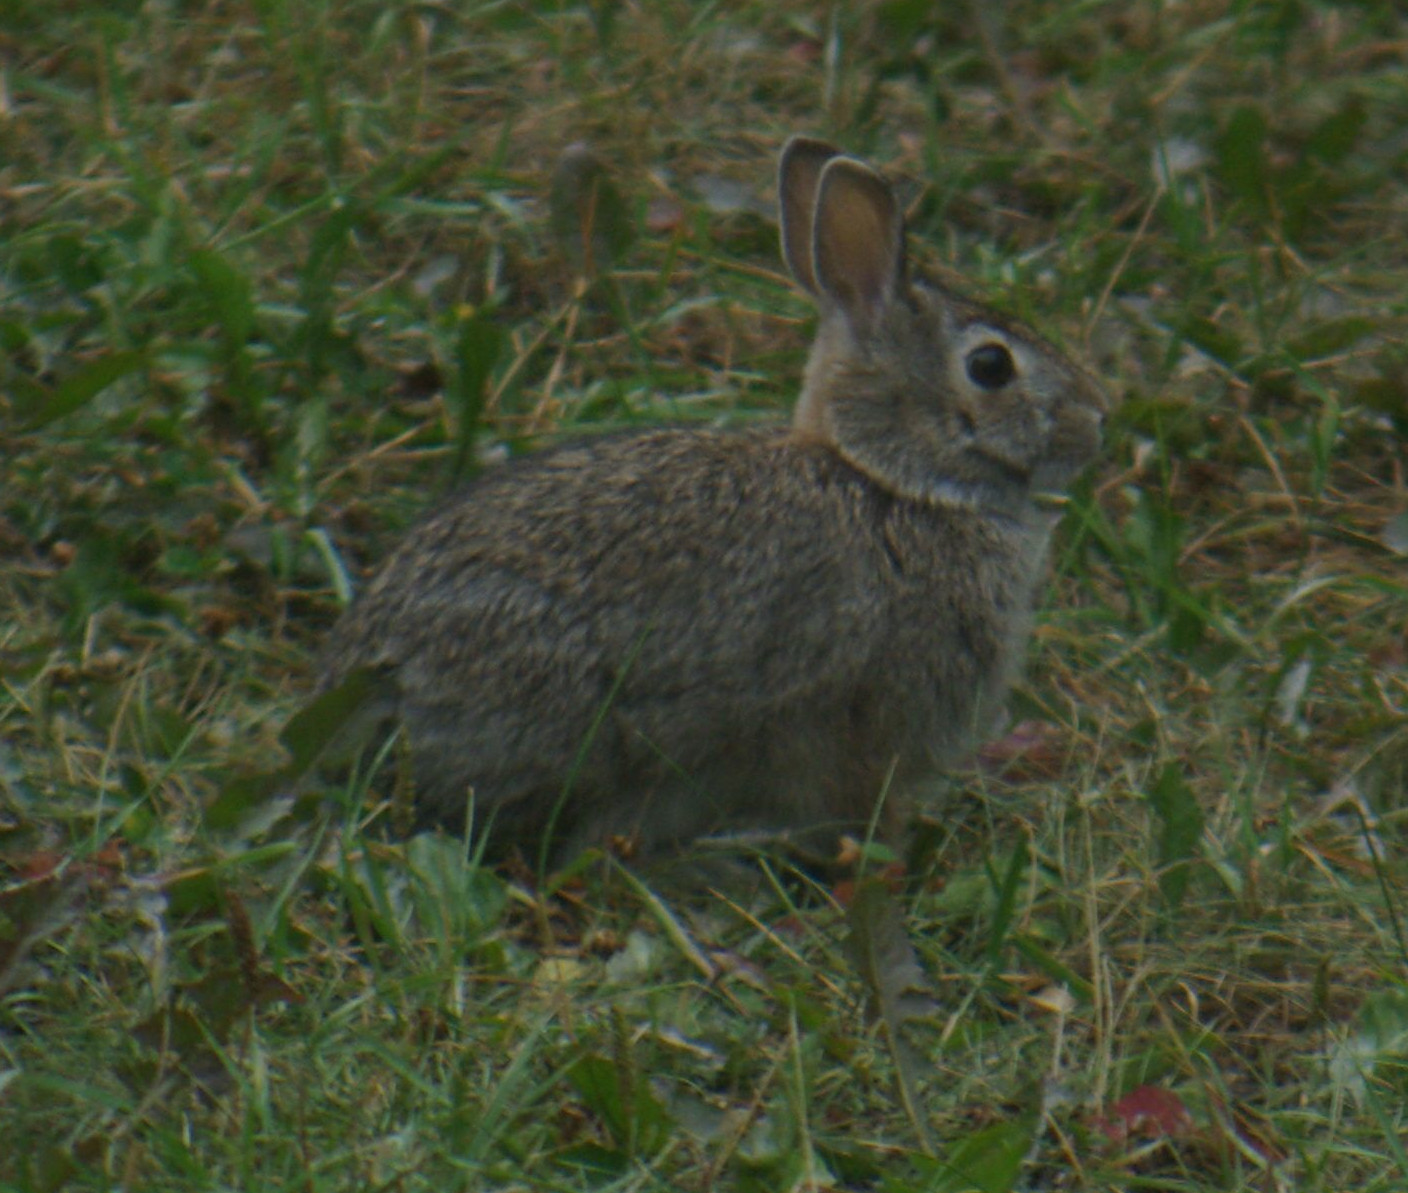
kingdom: Animalia
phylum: Chordata
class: Mammalia
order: Lagomorpha
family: Leporidae
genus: Sylvilagus
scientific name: Sylvilagus floridanus
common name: Eastern cottontail
